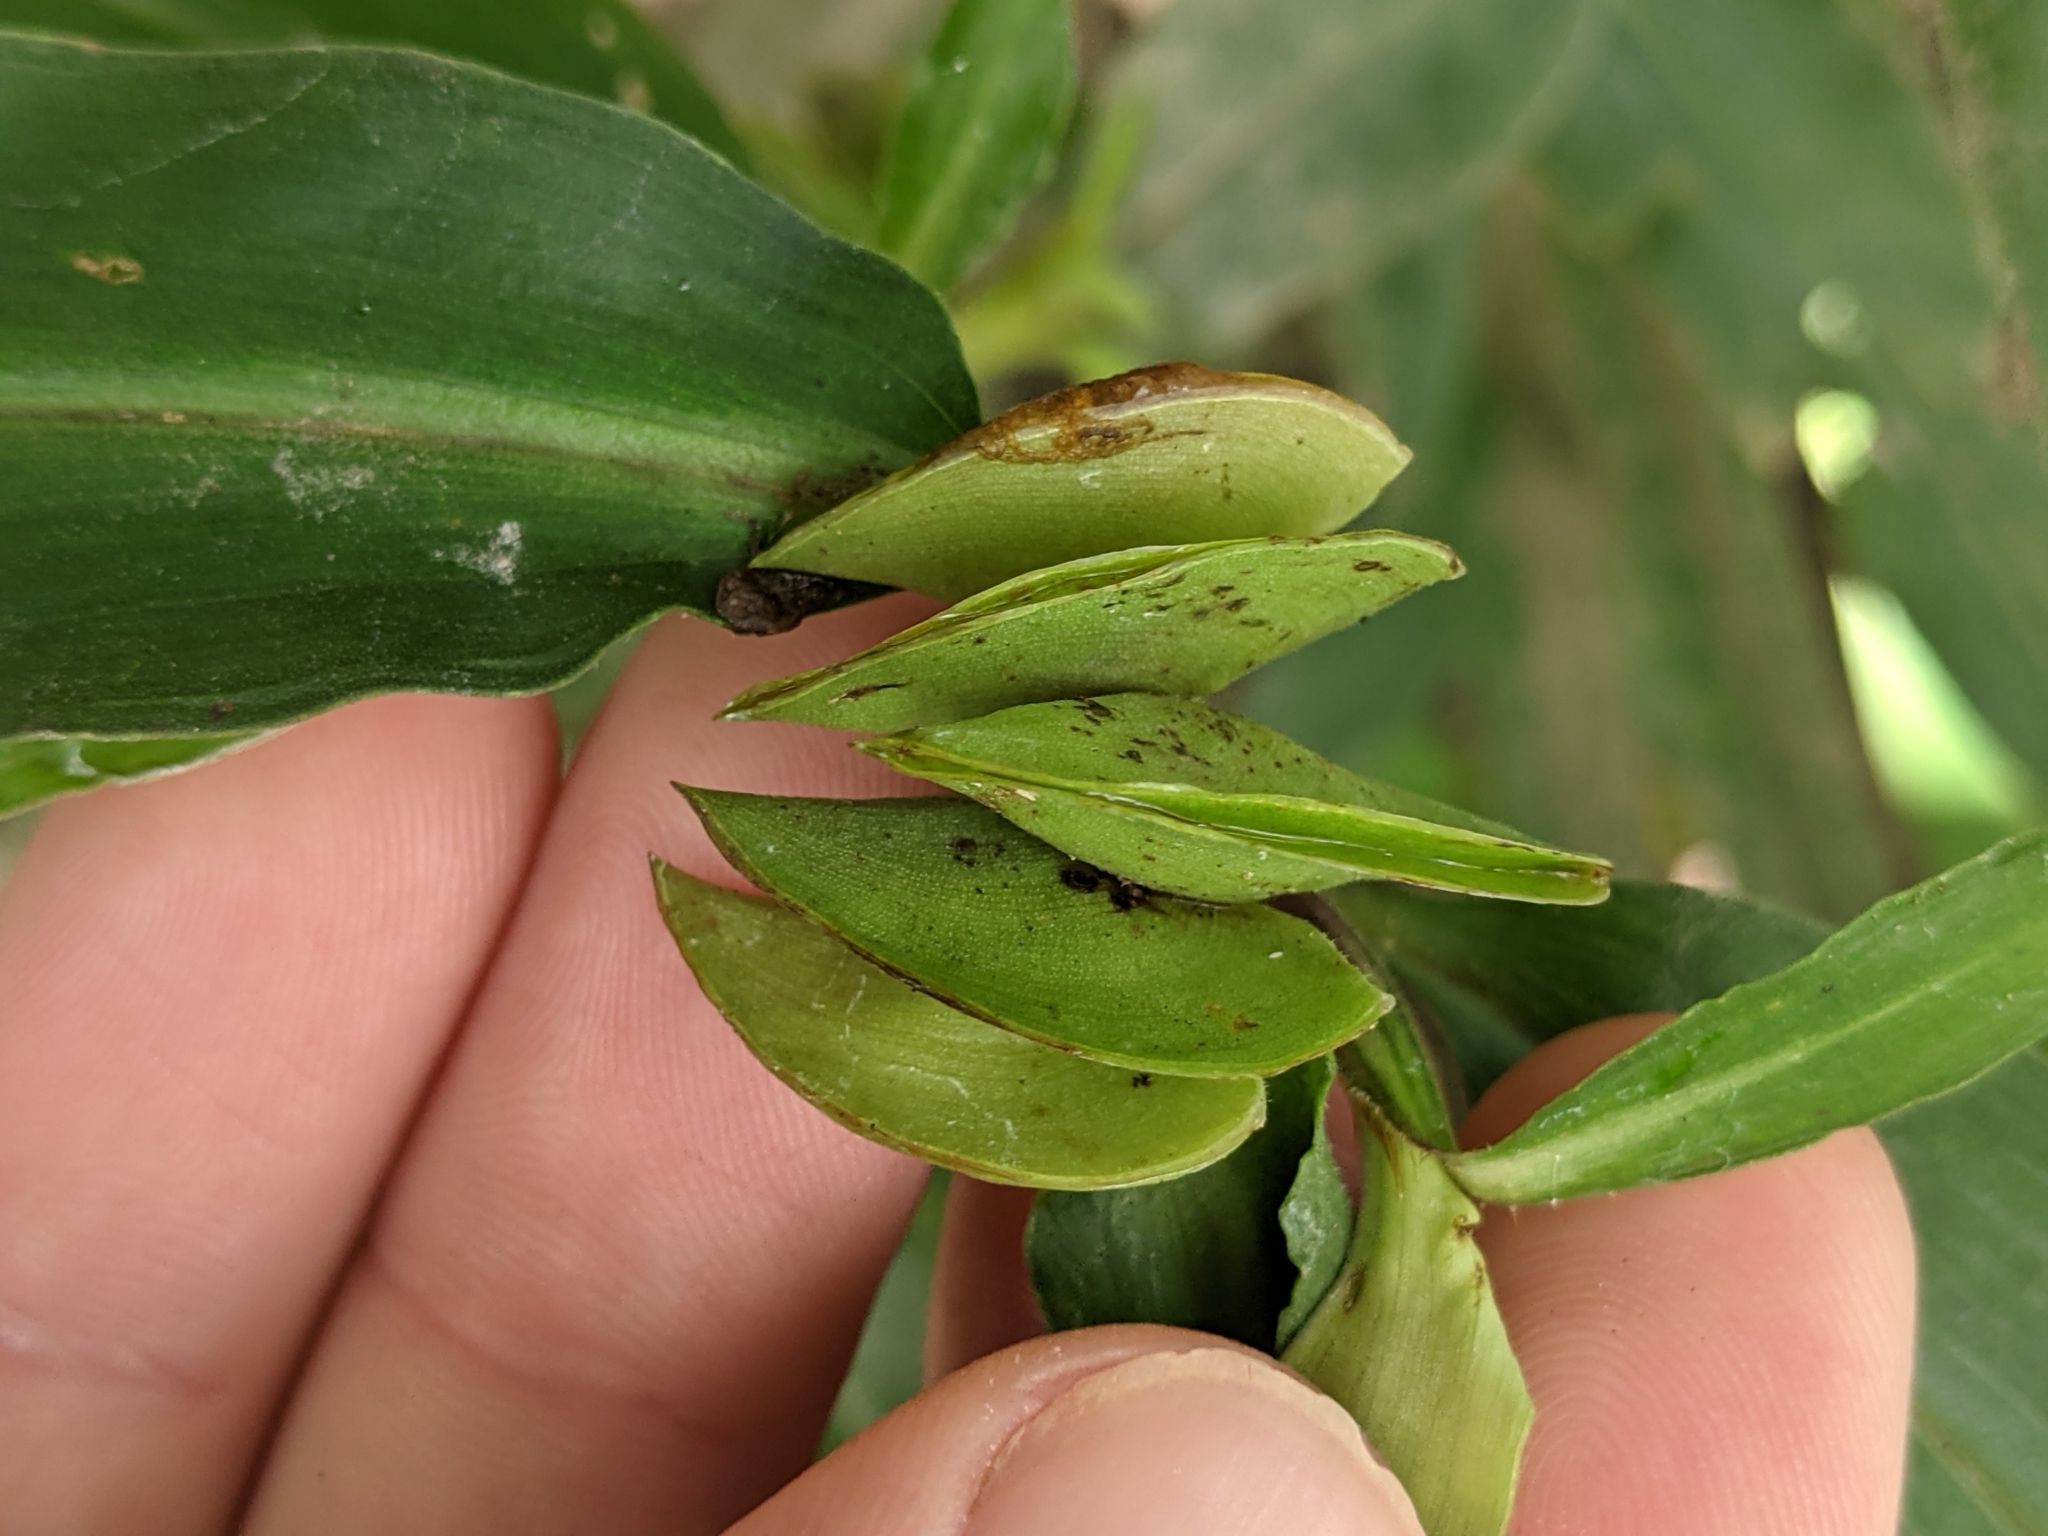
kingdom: Plantae
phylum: Tracheophyta
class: Liliopsida
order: Commelinales
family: Commelinaceae
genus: Commelina
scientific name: Commelina virginica
